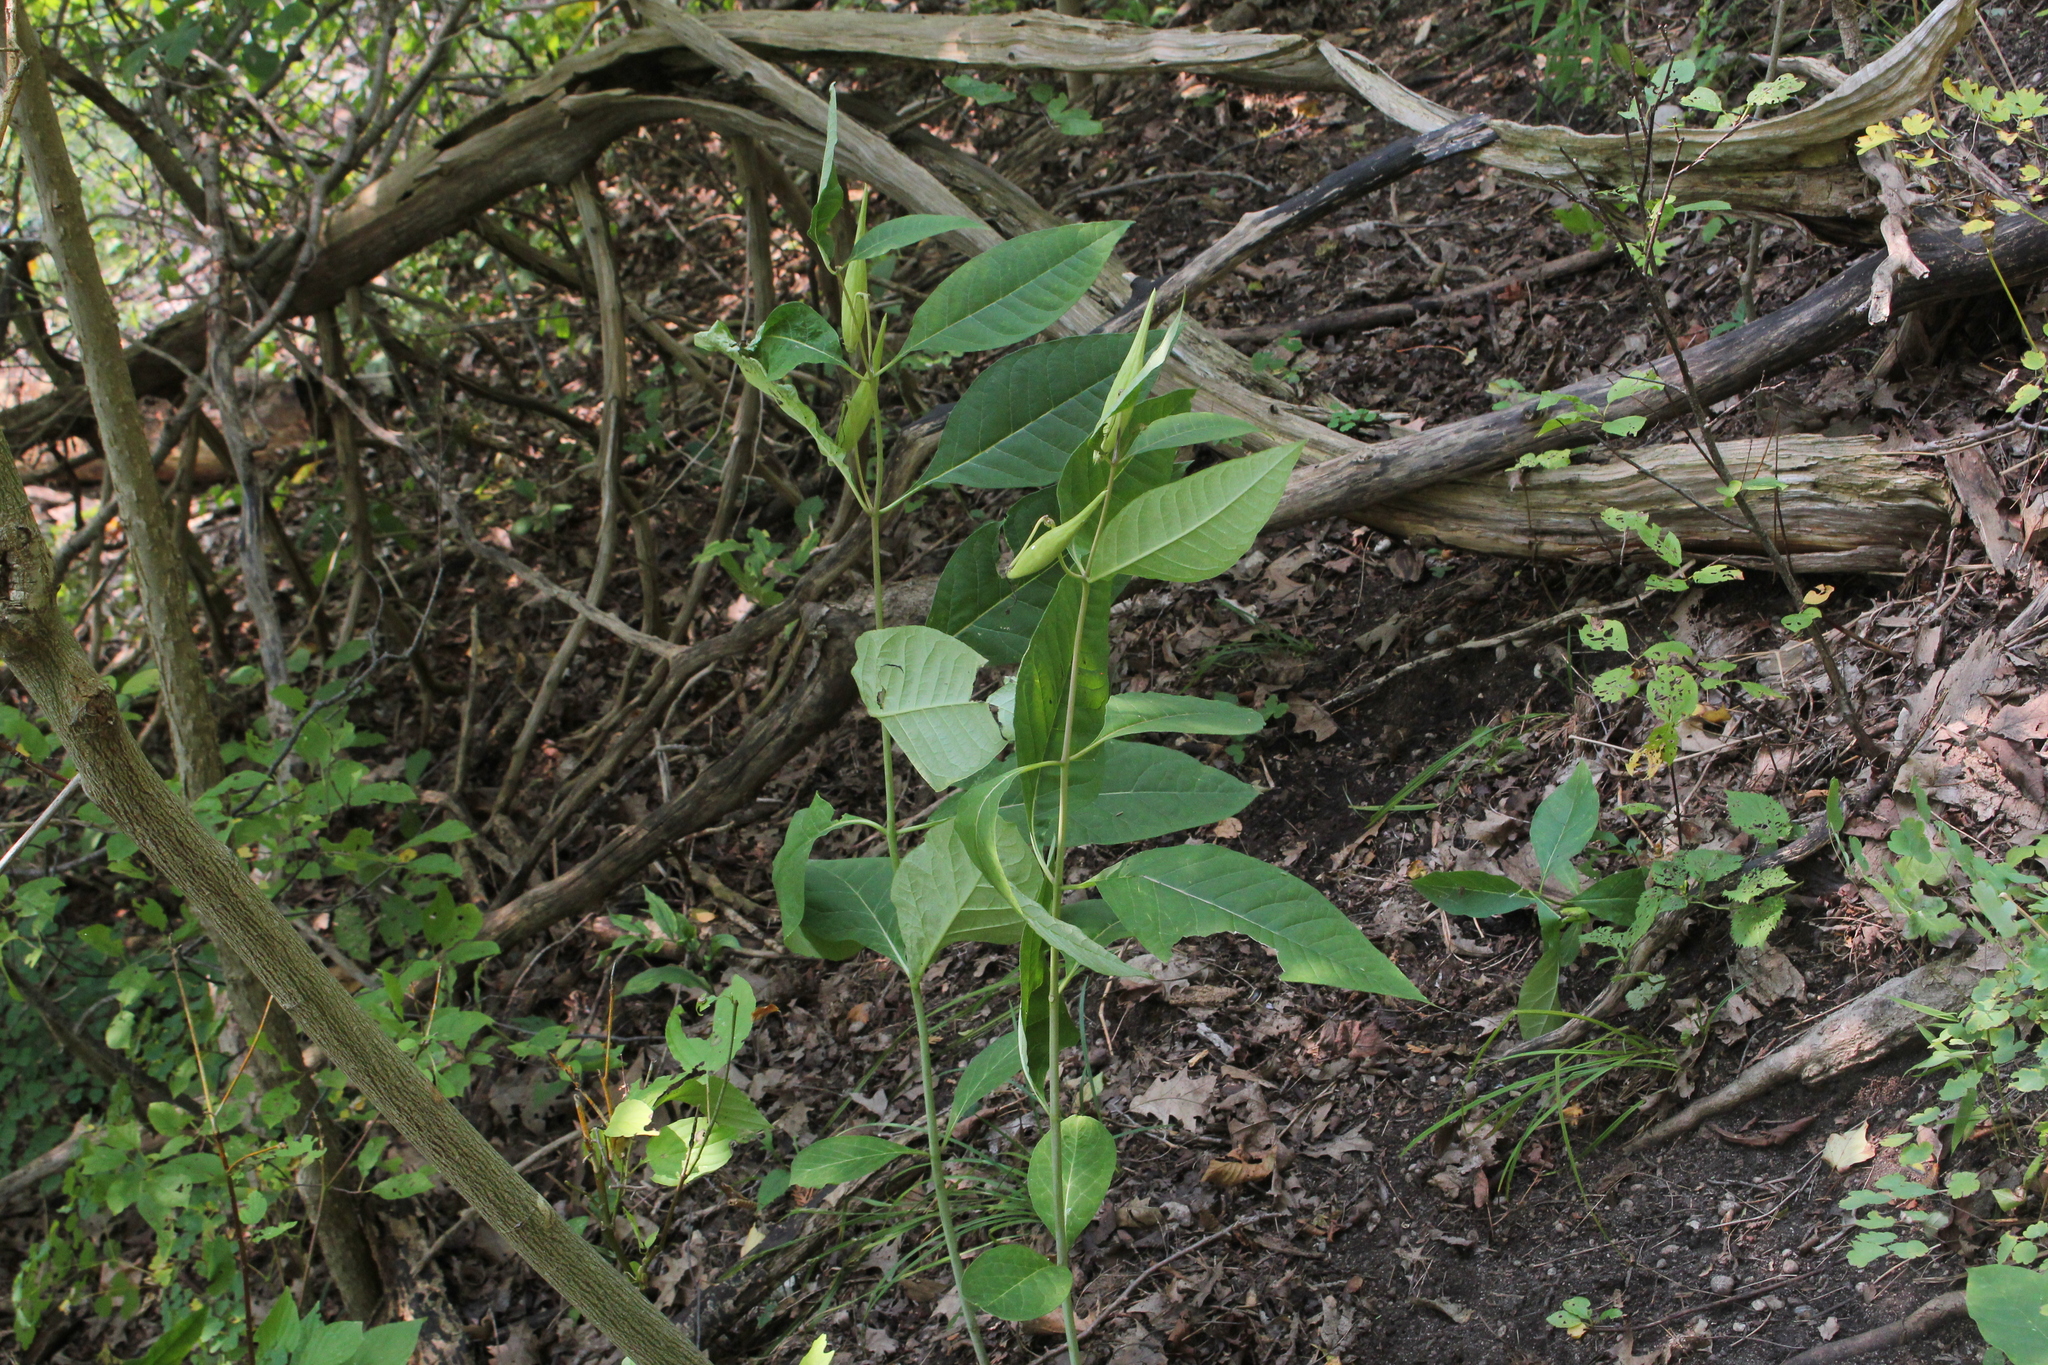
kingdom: Plantae
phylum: Tracheophyta
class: Magnoliopsida
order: Gentianales
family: Apocynaceae
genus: Asclepias
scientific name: Asclepias exaltata
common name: Poke milkweed
